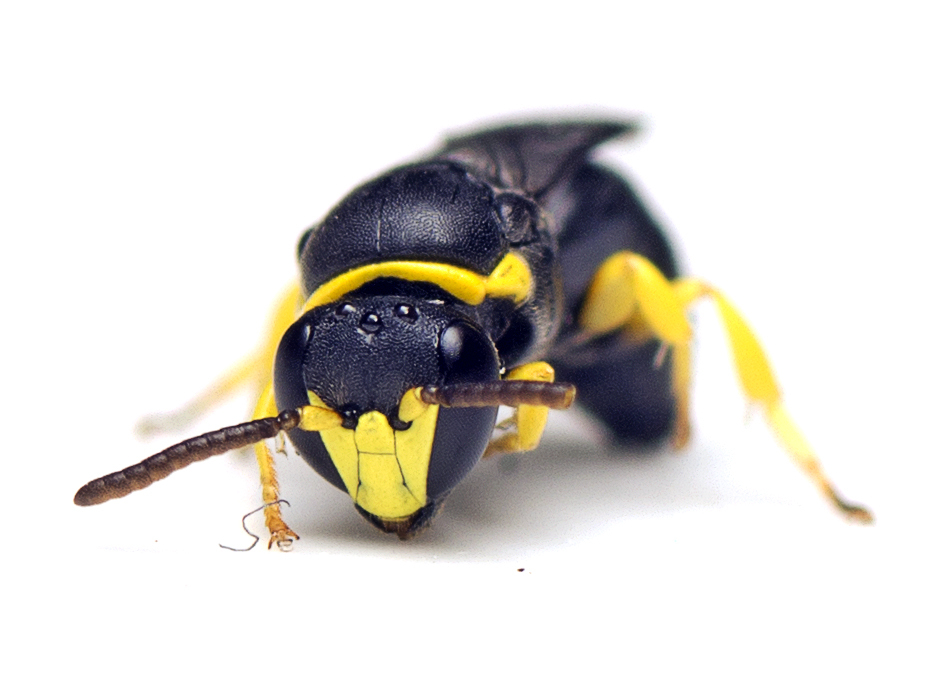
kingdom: Animalia
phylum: Arthropoda
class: Insecta
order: Hymenoptera
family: Colletidae
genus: Hylaeus
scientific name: Hylaeus amiculinus
